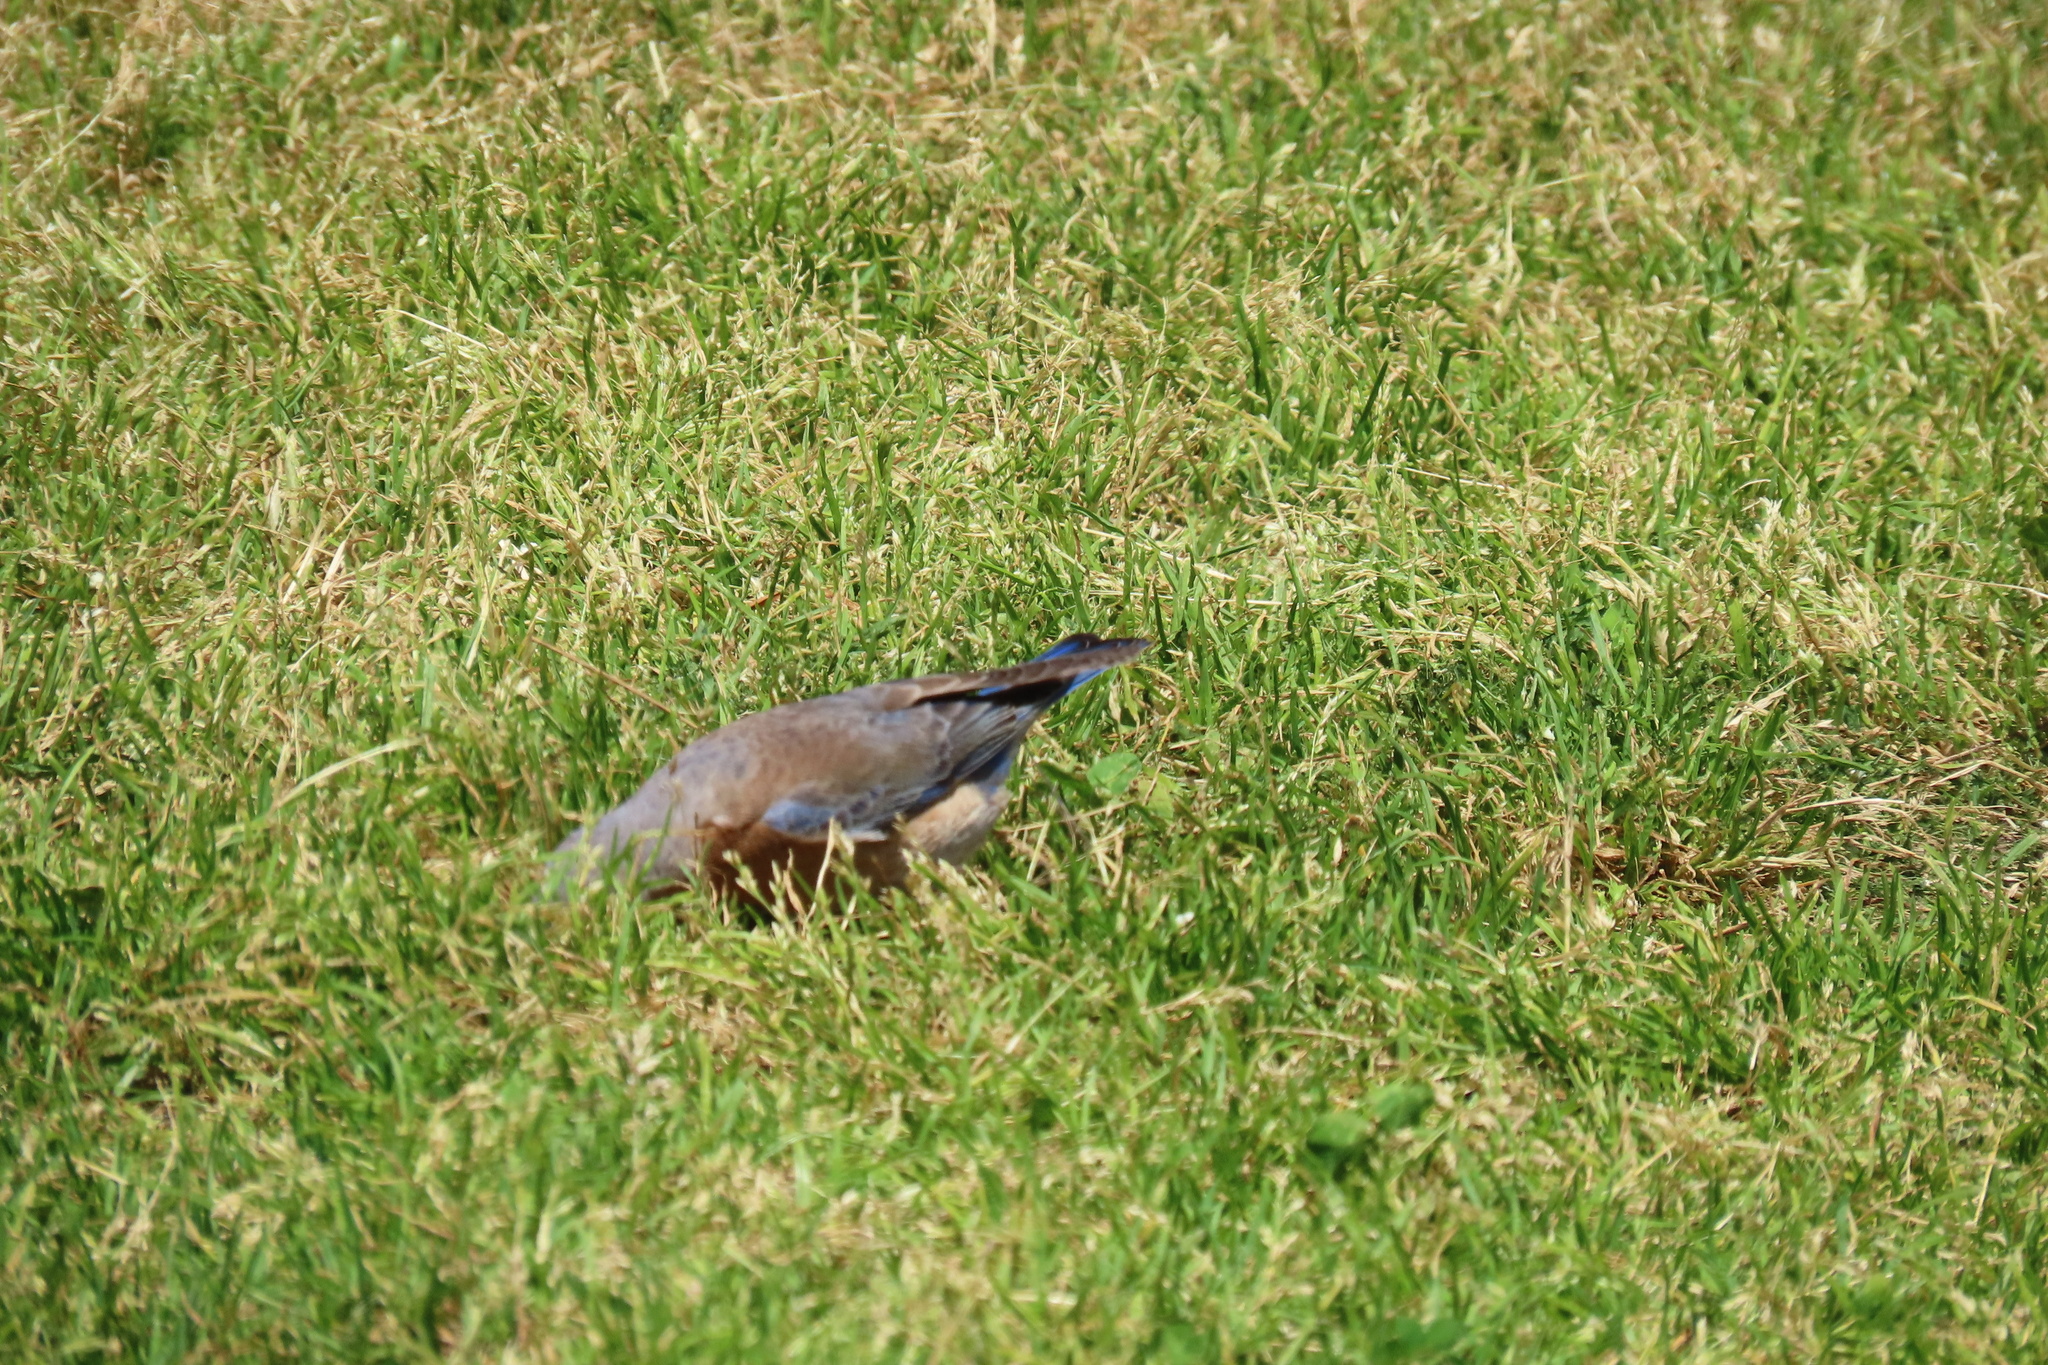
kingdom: Animalia
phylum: Chordata
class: Aves
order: Passeriformes
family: Turdidae
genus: Sialia
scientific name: Sialia mexicana
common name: Western bluebird
